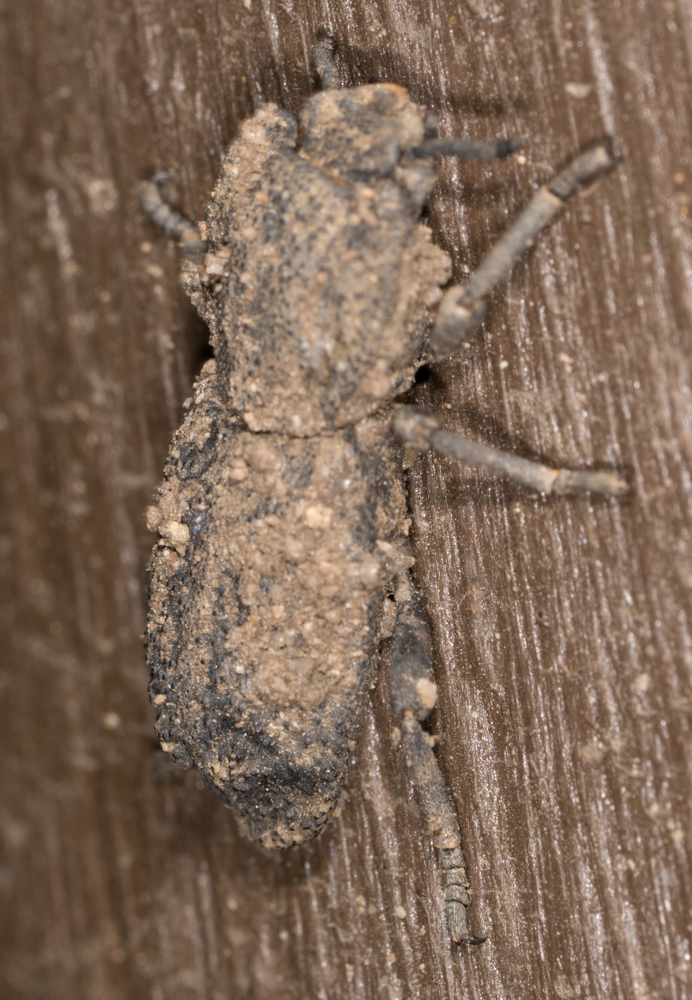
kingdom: Animalia
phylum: Arthropoda
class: Insecta
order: Coleoptera
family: Zopheridae
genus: Phloeodes
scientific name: Phloeodes diabolicus
